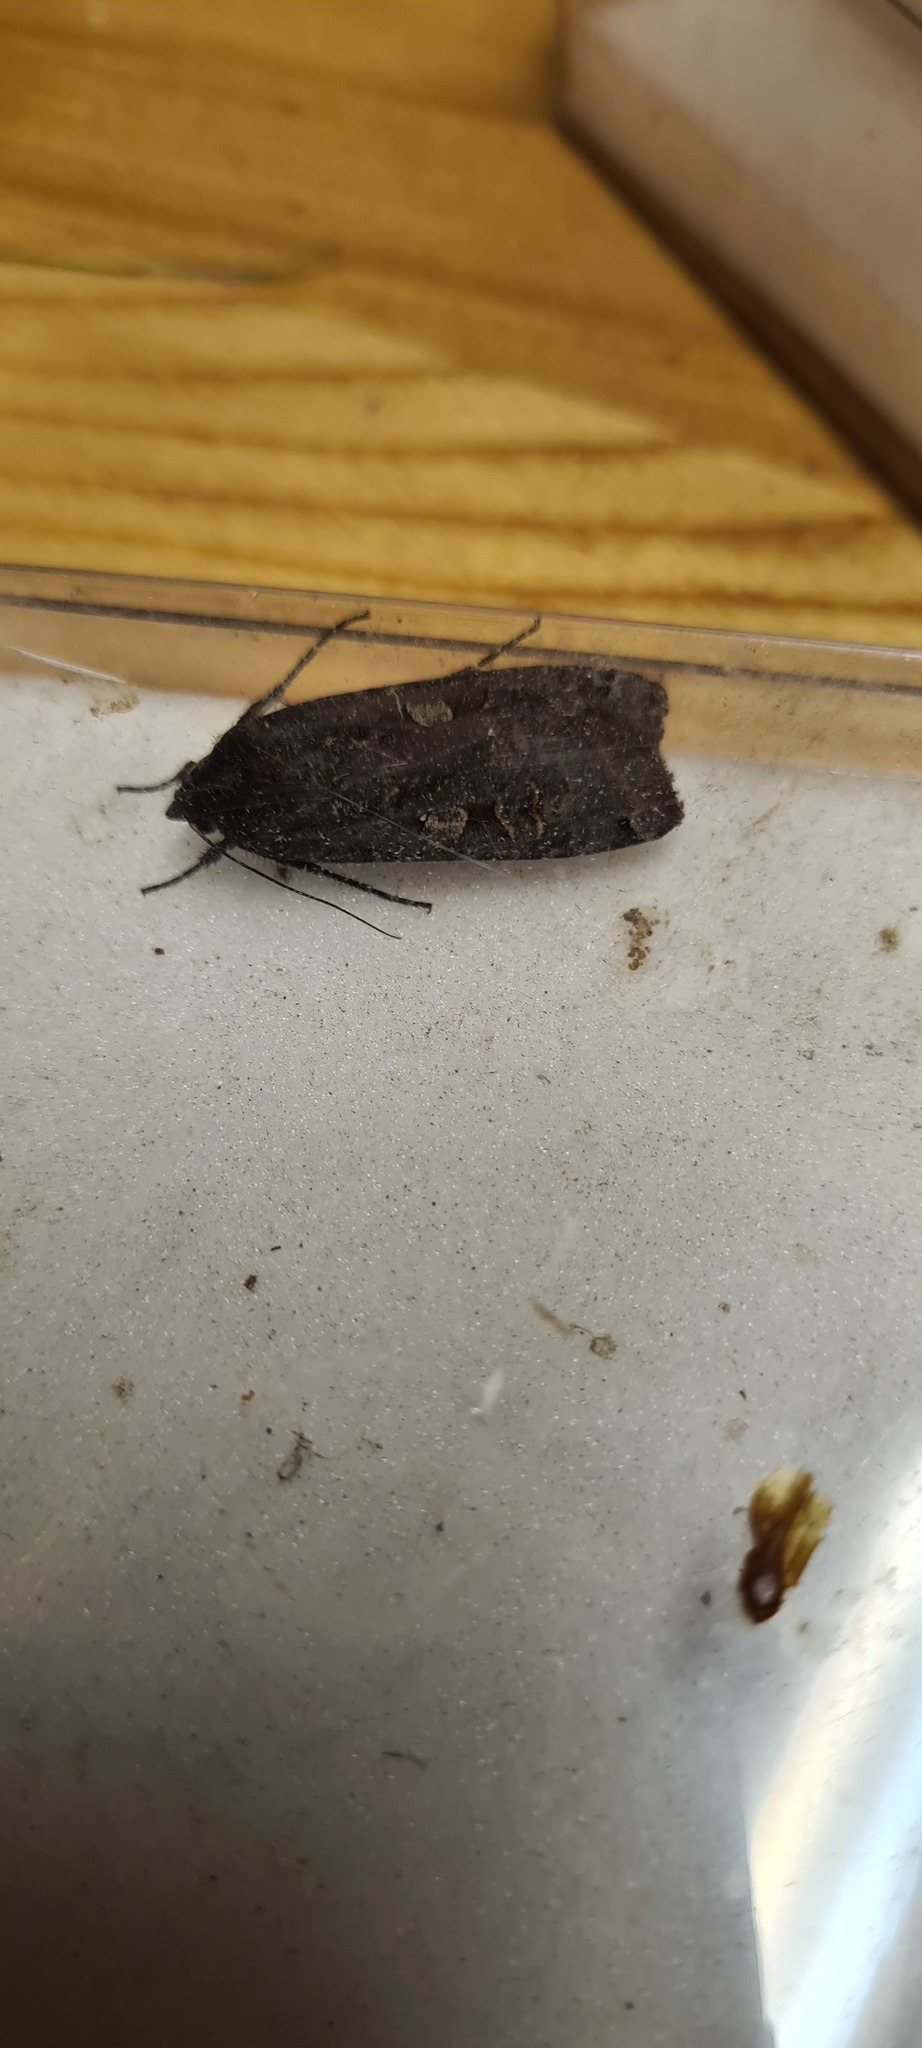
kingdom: Animalia
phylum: Arthropoda
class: Insecta
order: Lepidoptera
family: Noctuidae
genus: Noctua
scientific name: Noctua pronuba
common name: Large yellow underwing
